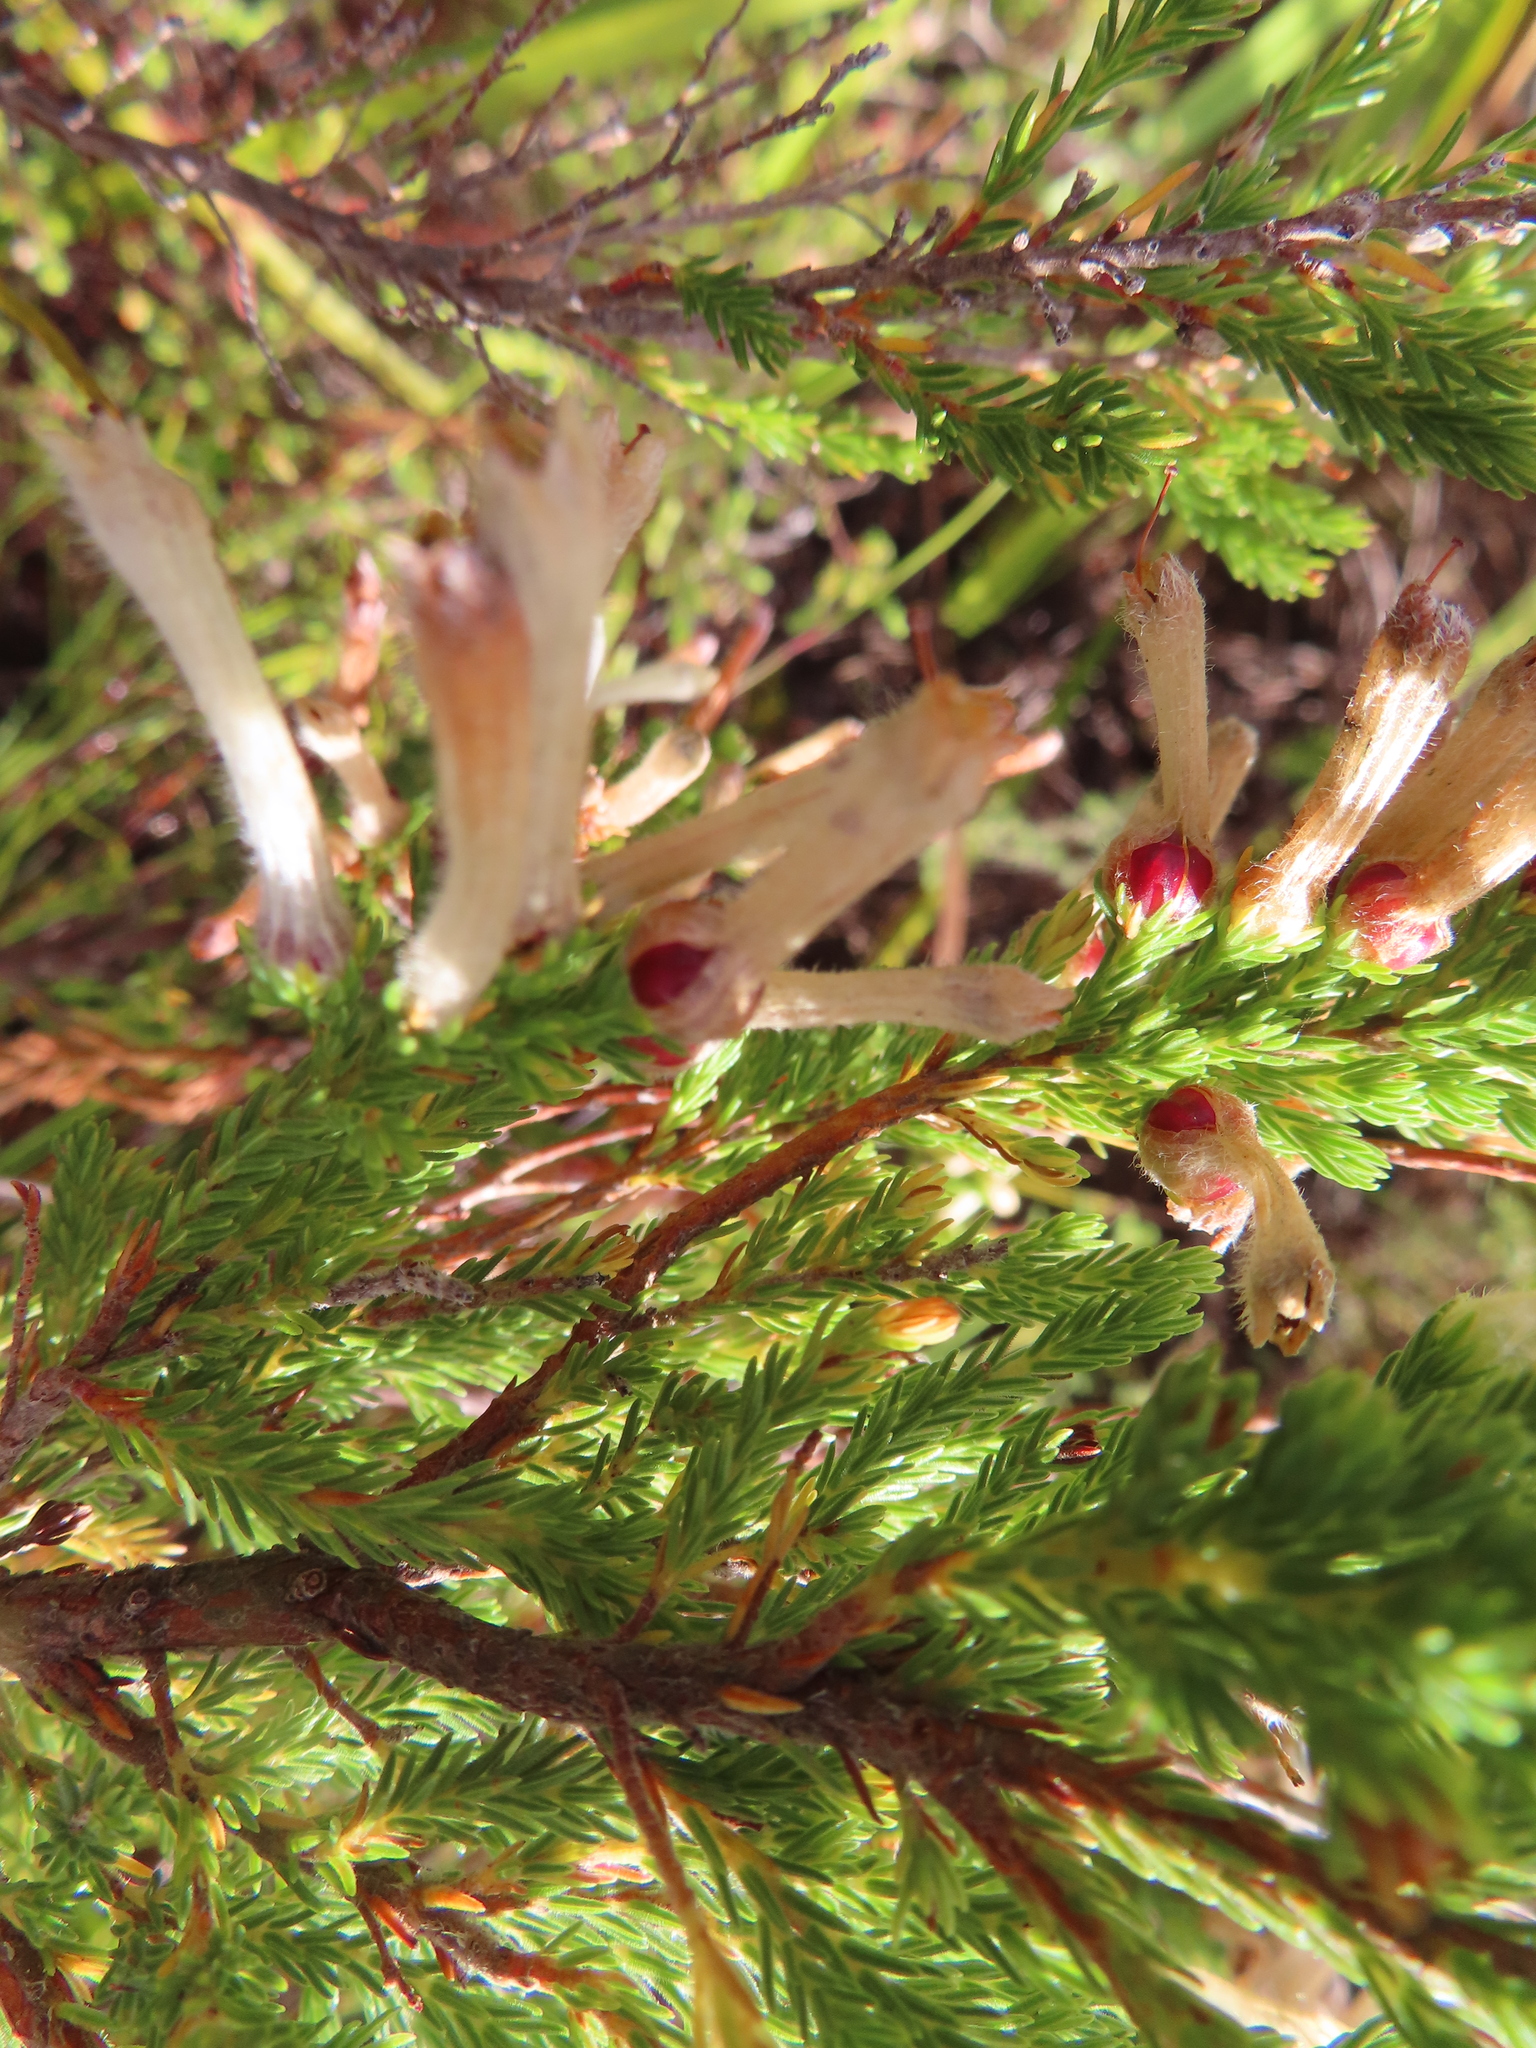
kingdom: Plantae
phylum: Tracheophyta
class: Magnoliopsida
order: Ericales
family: Ericaceae
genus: Erica
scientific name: Erica perspicua
